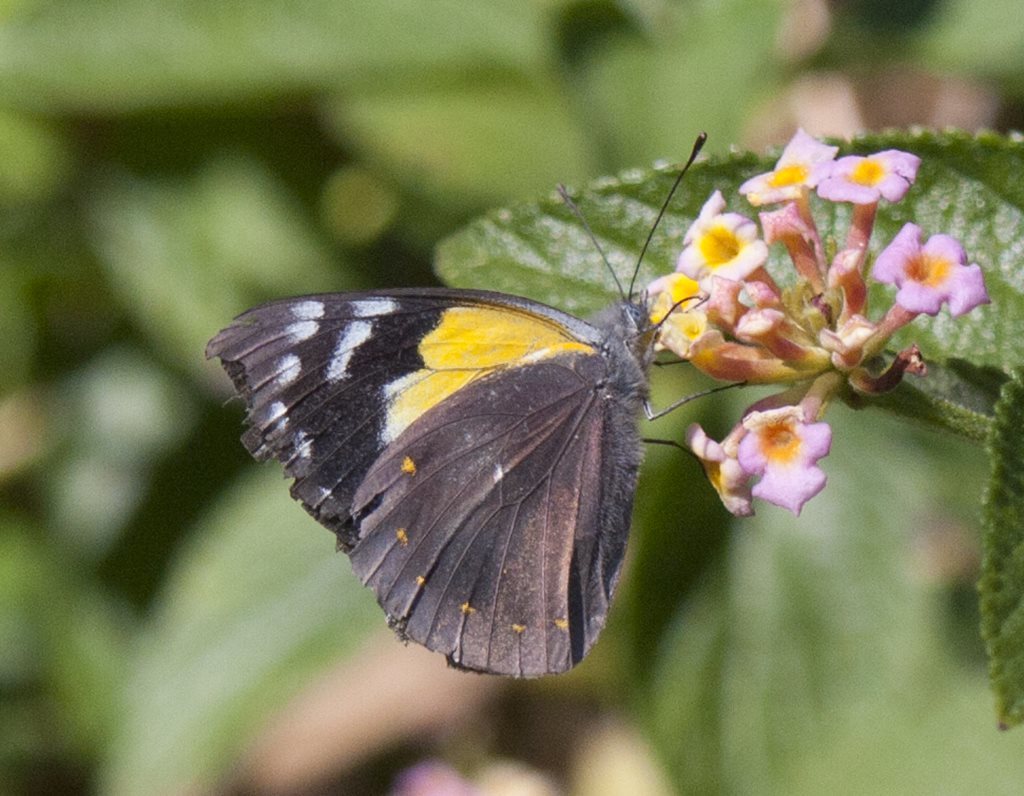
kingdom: Animalia
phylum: Arthropoda
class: Insecta
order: Lepidoptera
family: Pieridae
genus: Delias
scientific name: Delias nysa
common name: Yellow-spotted jezebel
